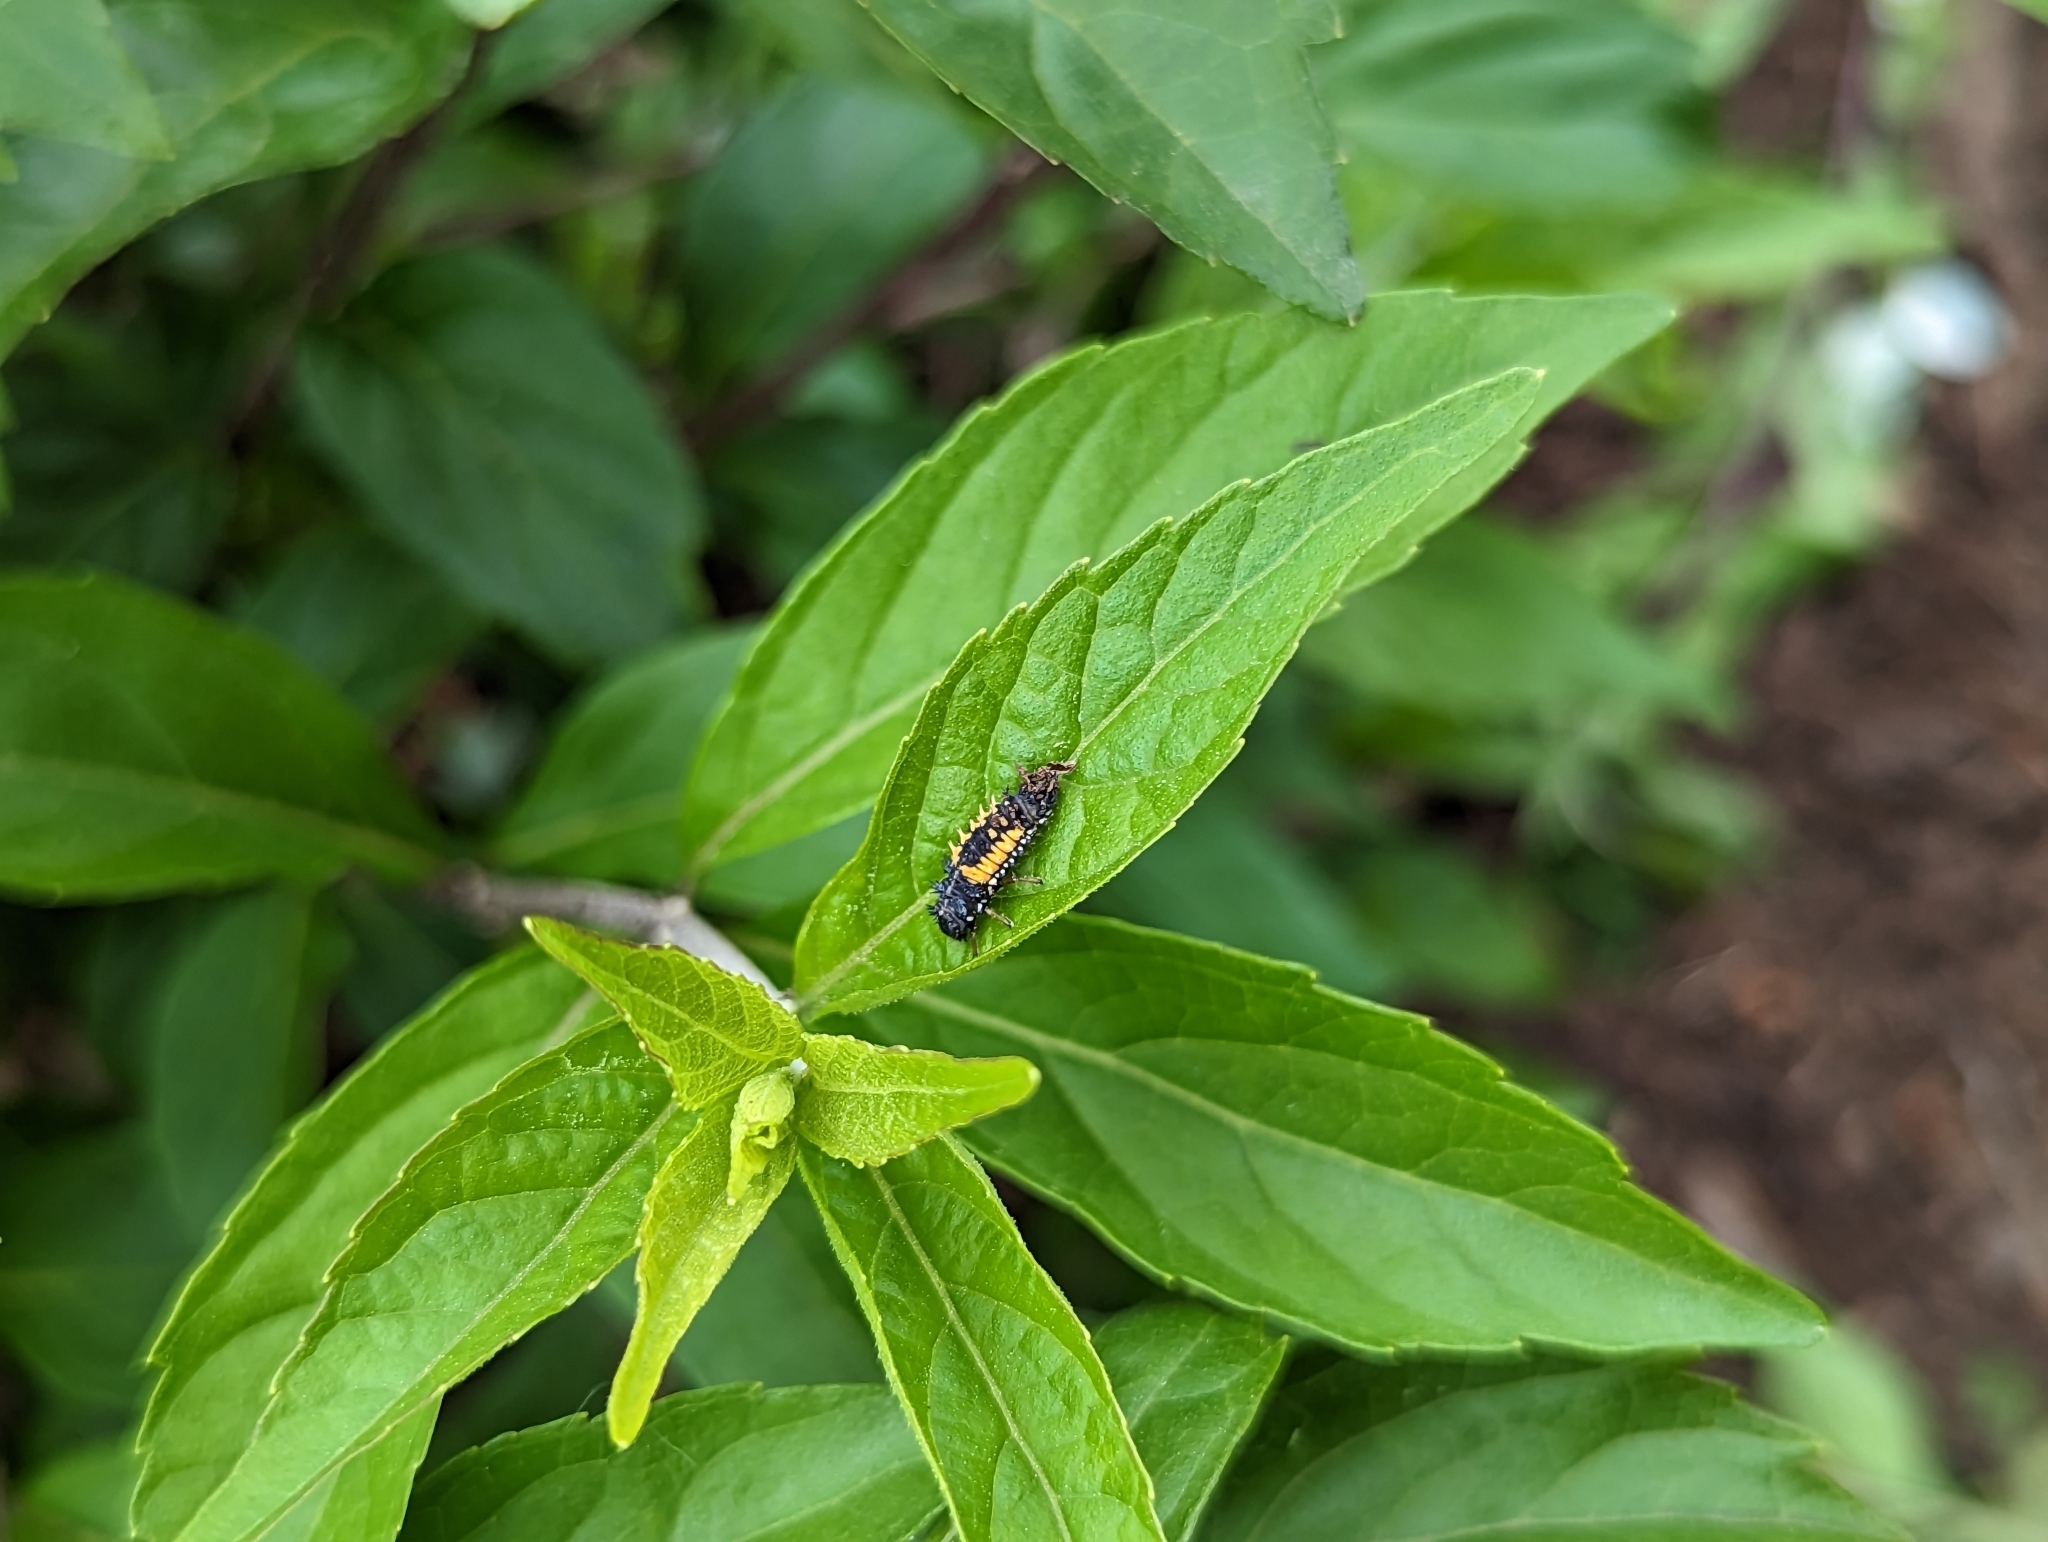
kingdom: Animalia
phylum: Arthropoda
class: Insecta
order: Coleoptera
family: Coccinellidae
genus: Harmonia
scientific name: Harmonia axyridis
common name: Harlequin ladybird
